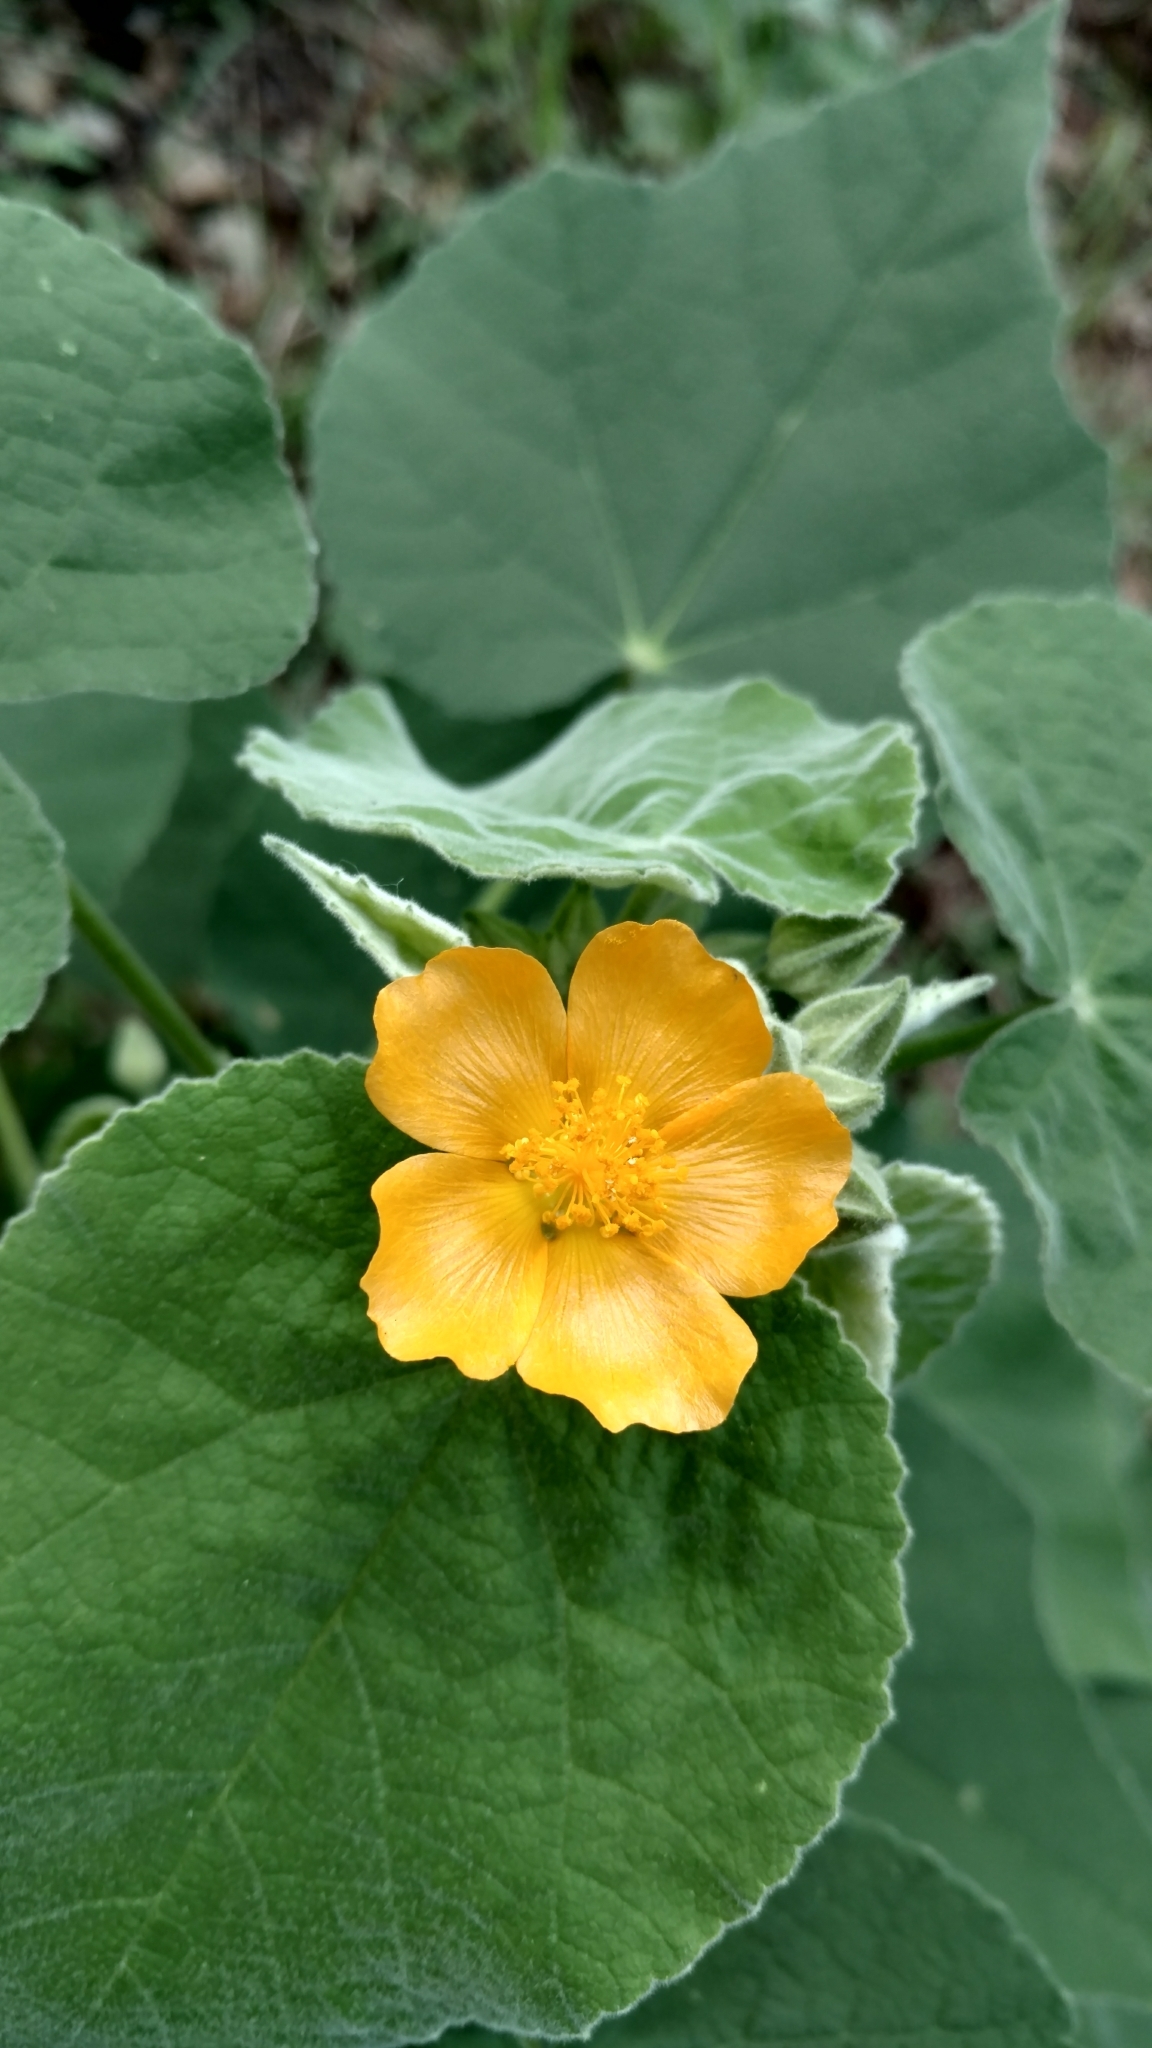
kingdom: Plantae
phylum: Tracheophyta
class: Magnoliopsida
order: Malvales
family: Malvaceae
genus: Allowissadula
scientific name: Allowissadula holosericea
